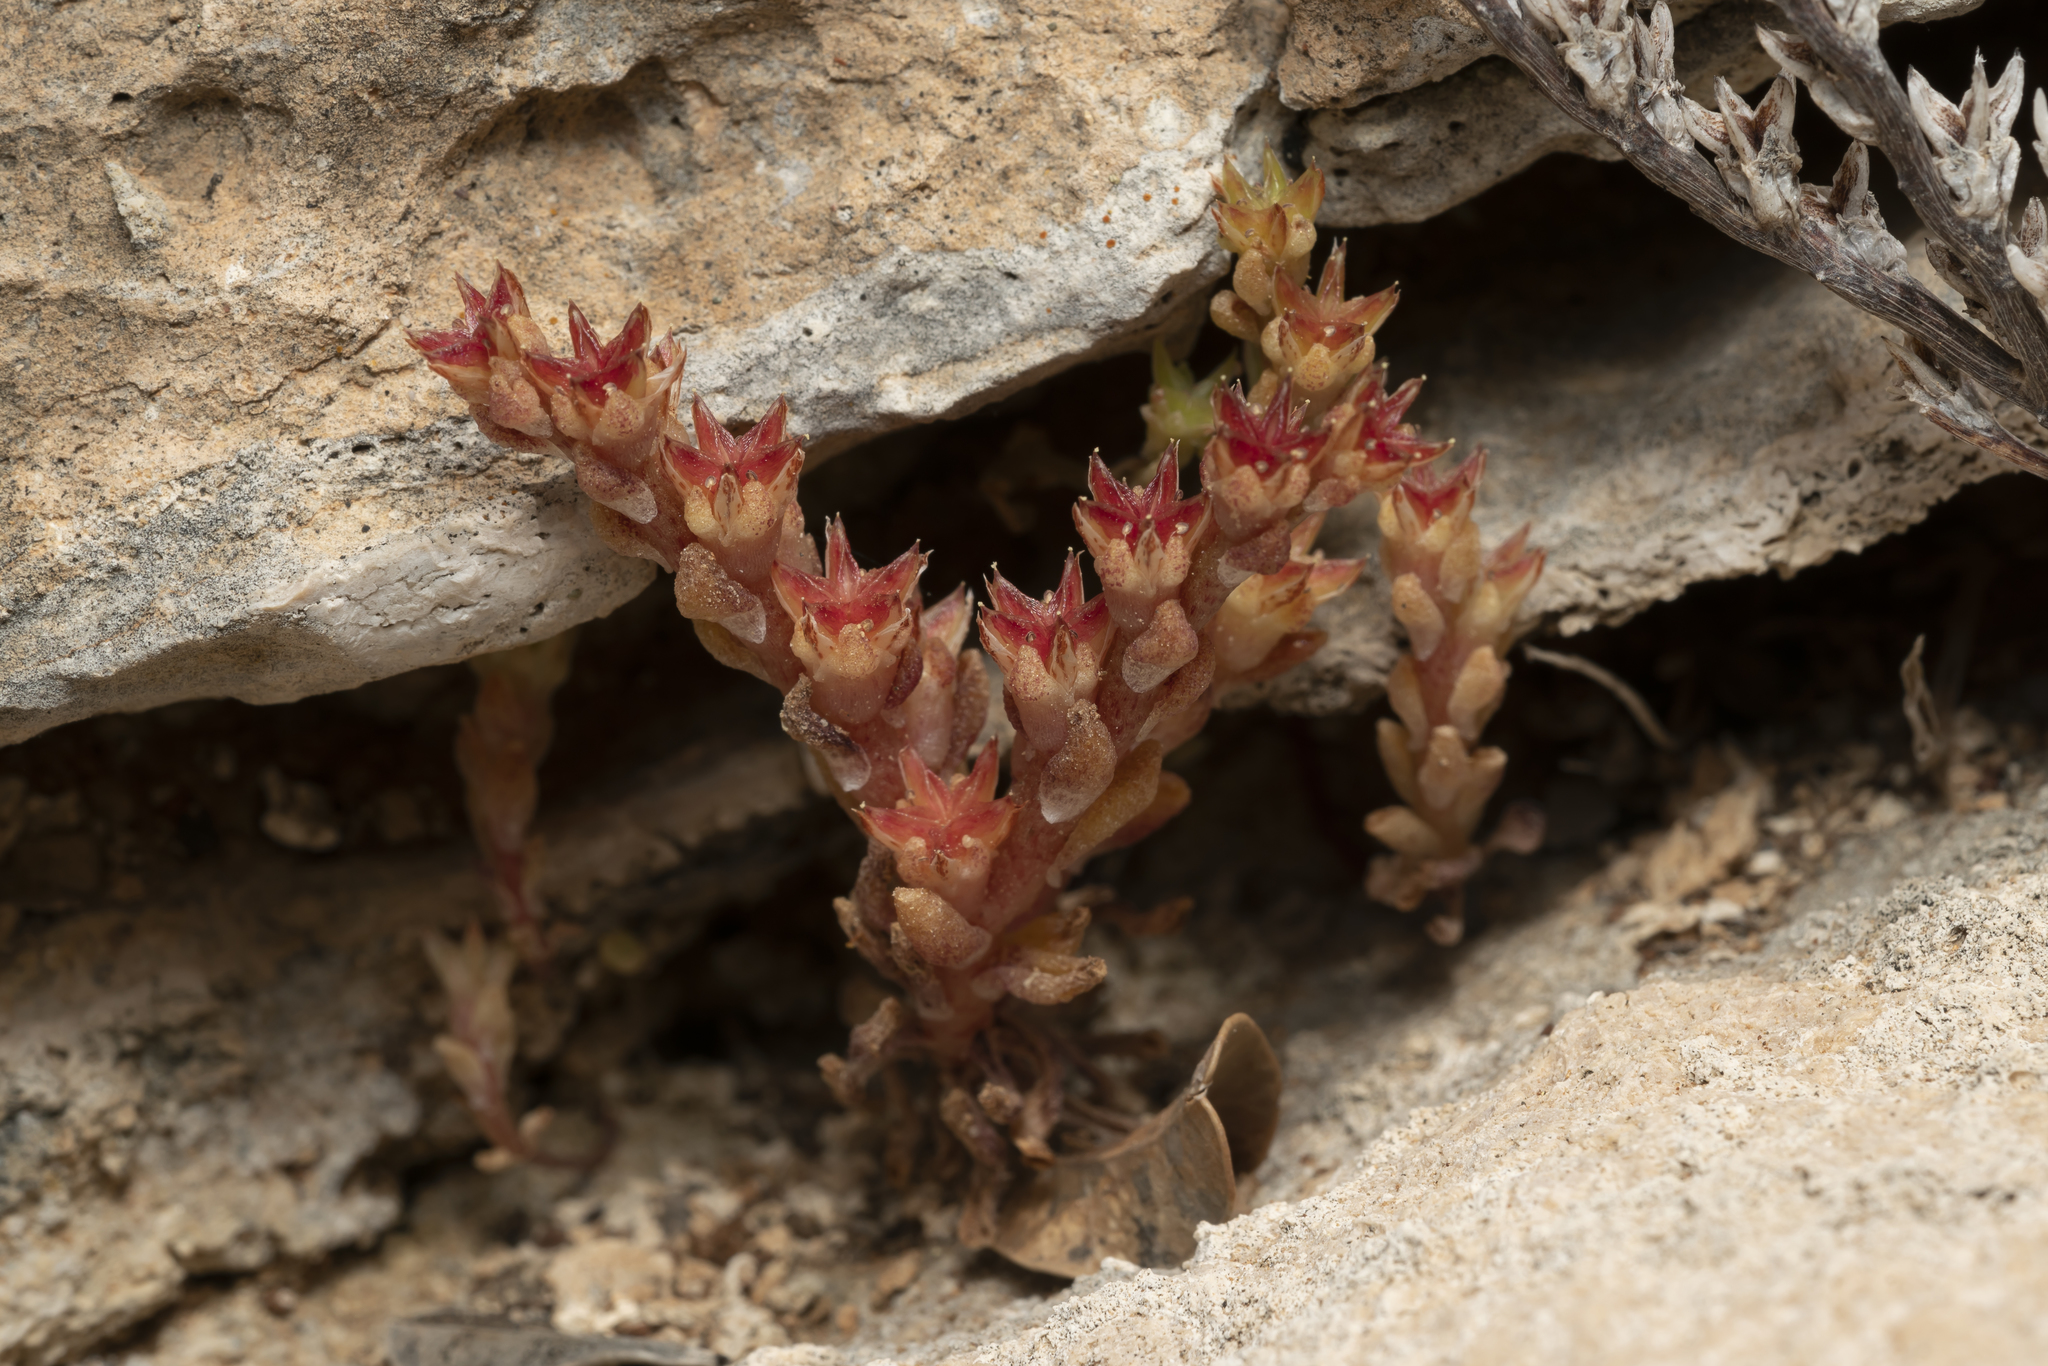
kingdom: Plantae
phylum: Tracheophyta
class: Magnoliopsida
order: Saxifragales
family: Crassulaceae
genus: Sedum
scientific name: Sedum litoreum
